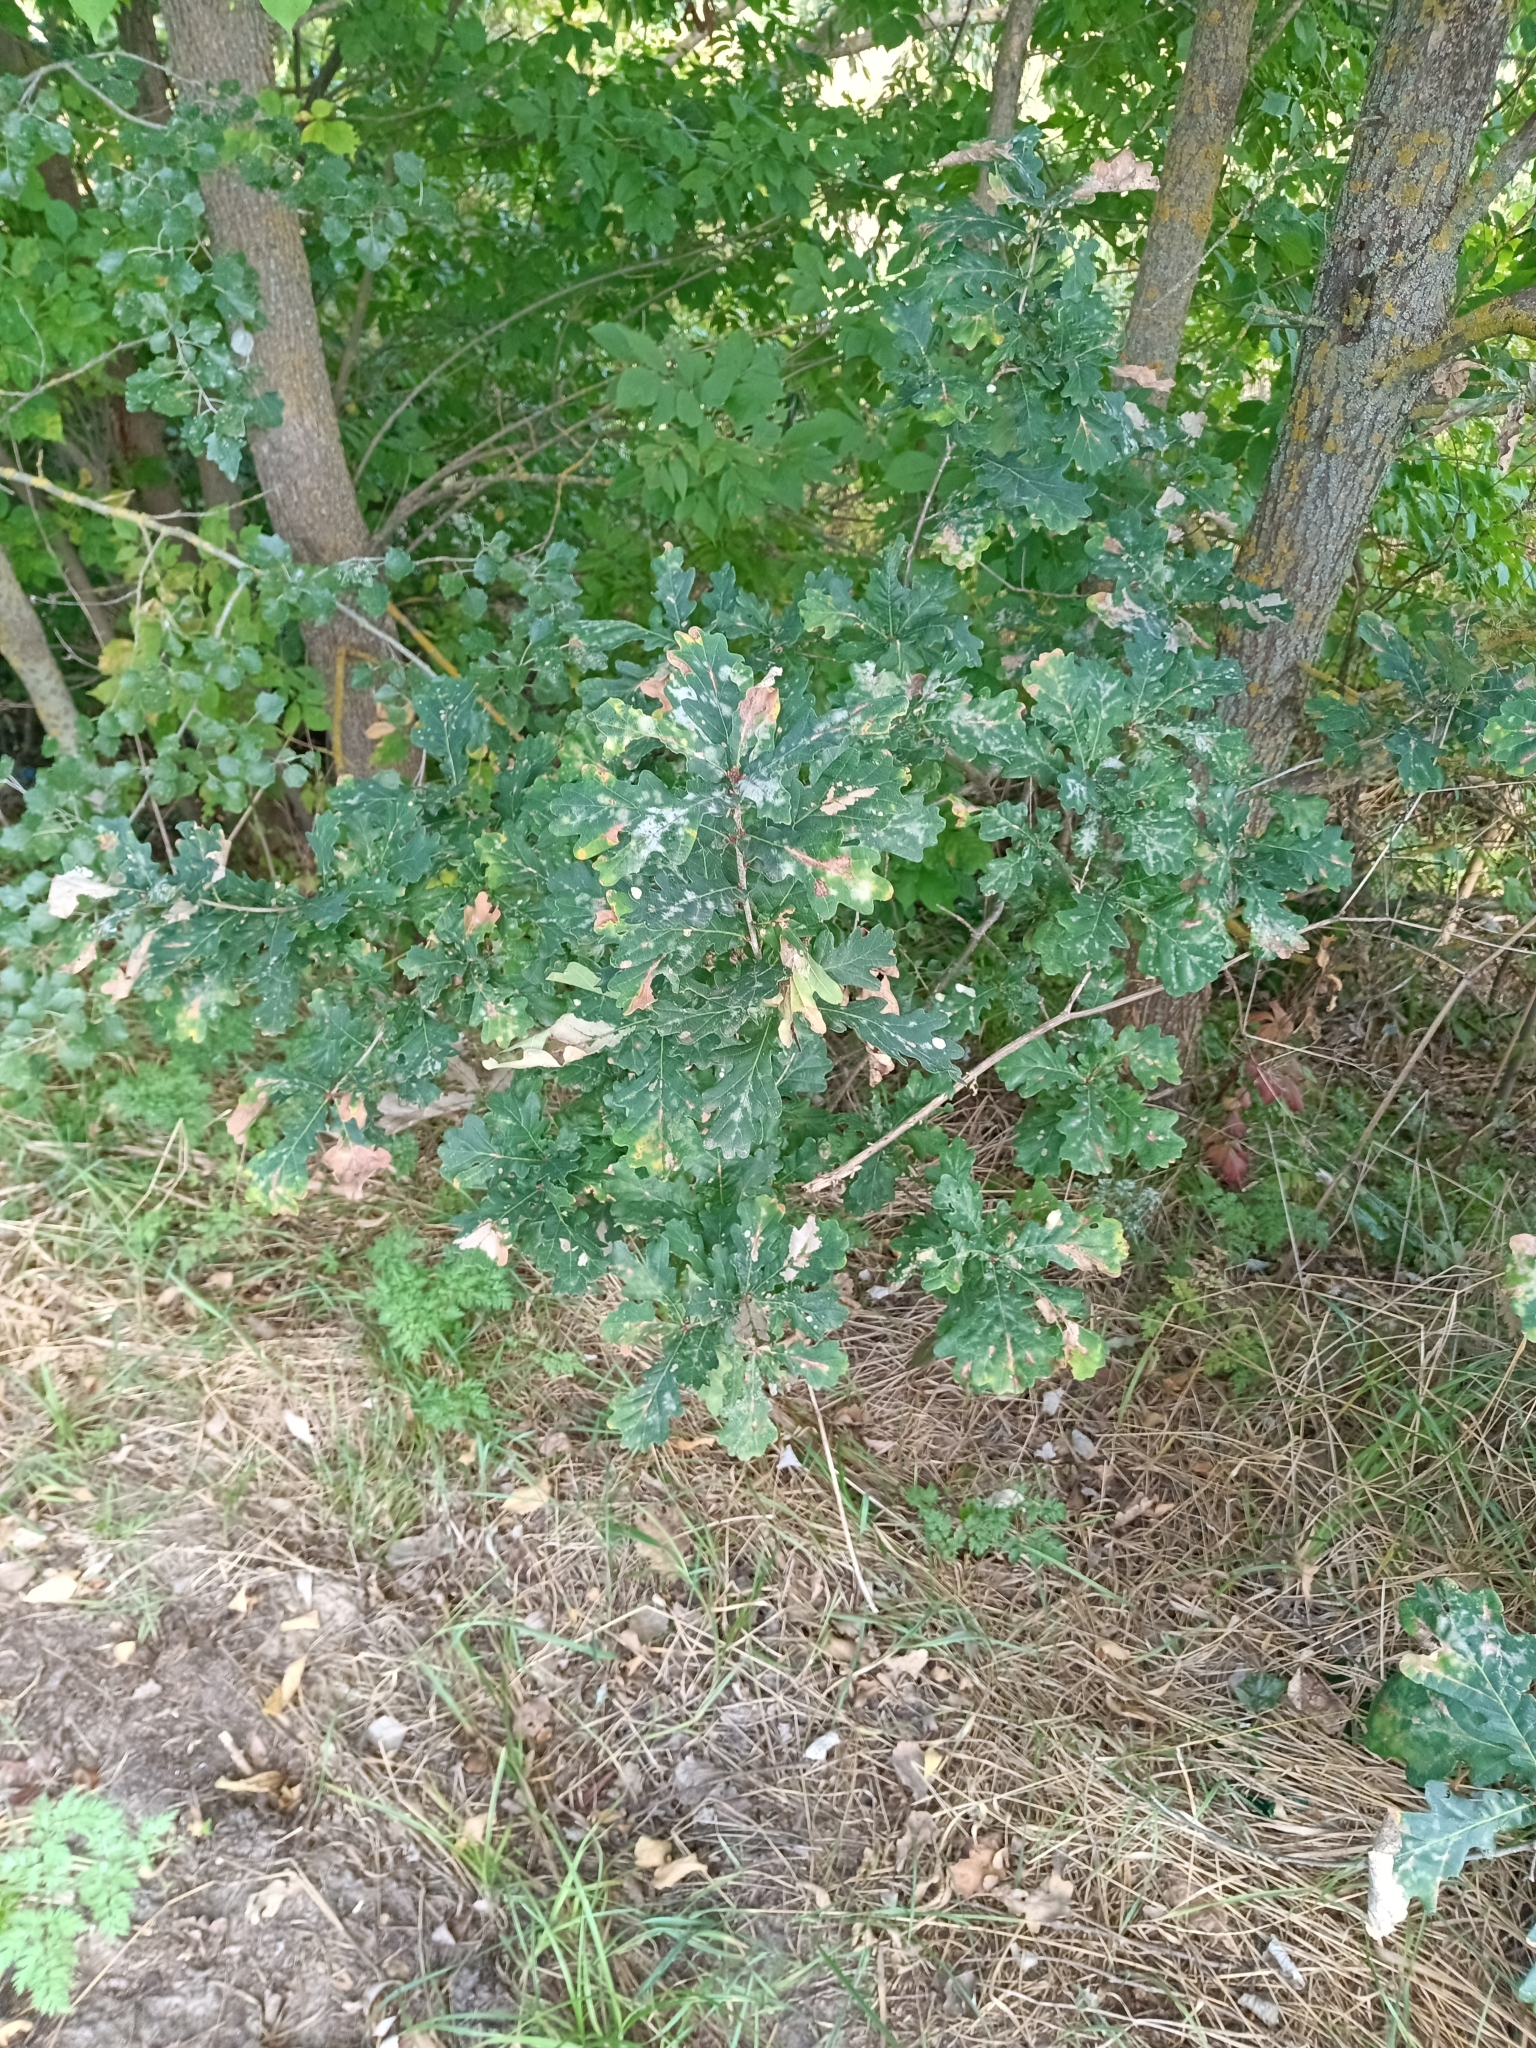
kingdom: Plantae
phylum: Tracheophyta
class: Magnoliopsida
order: Fagales
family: Fagaceae
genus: Quercus
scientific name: Quercus robur
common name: Pedunculate oak
